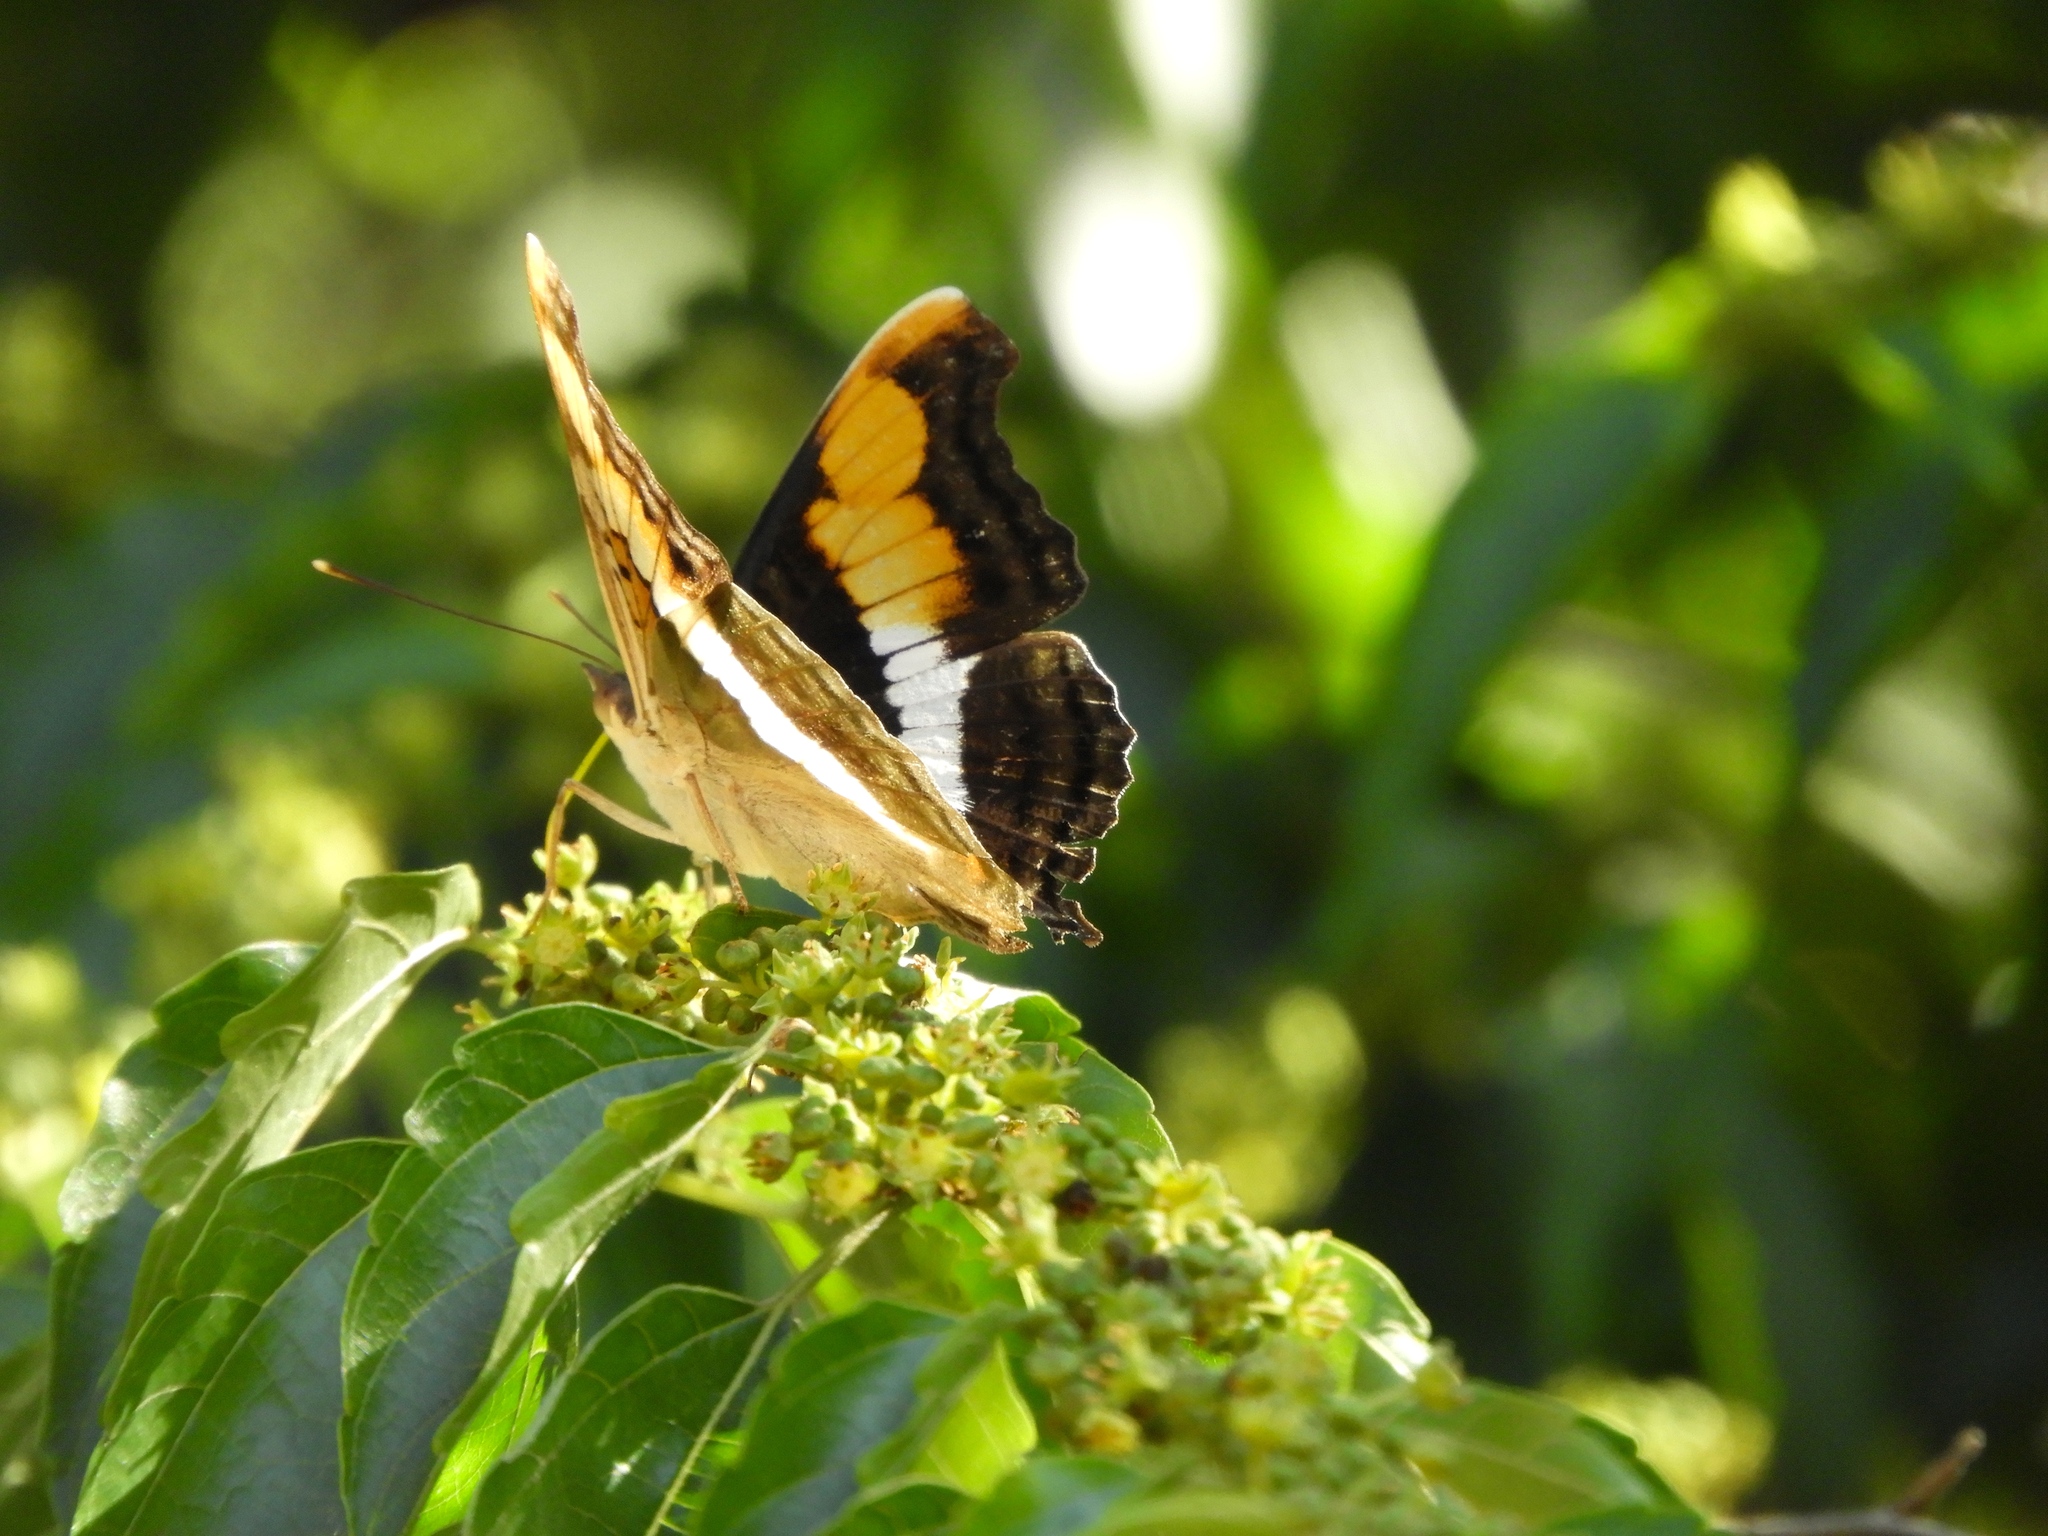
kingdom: Animalia
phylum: Arthropoda
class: Insecta
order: Lepidoptera
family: Nymphalidae
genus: Doxocopa
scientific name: Doxocopa laure
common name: Silver emperor
